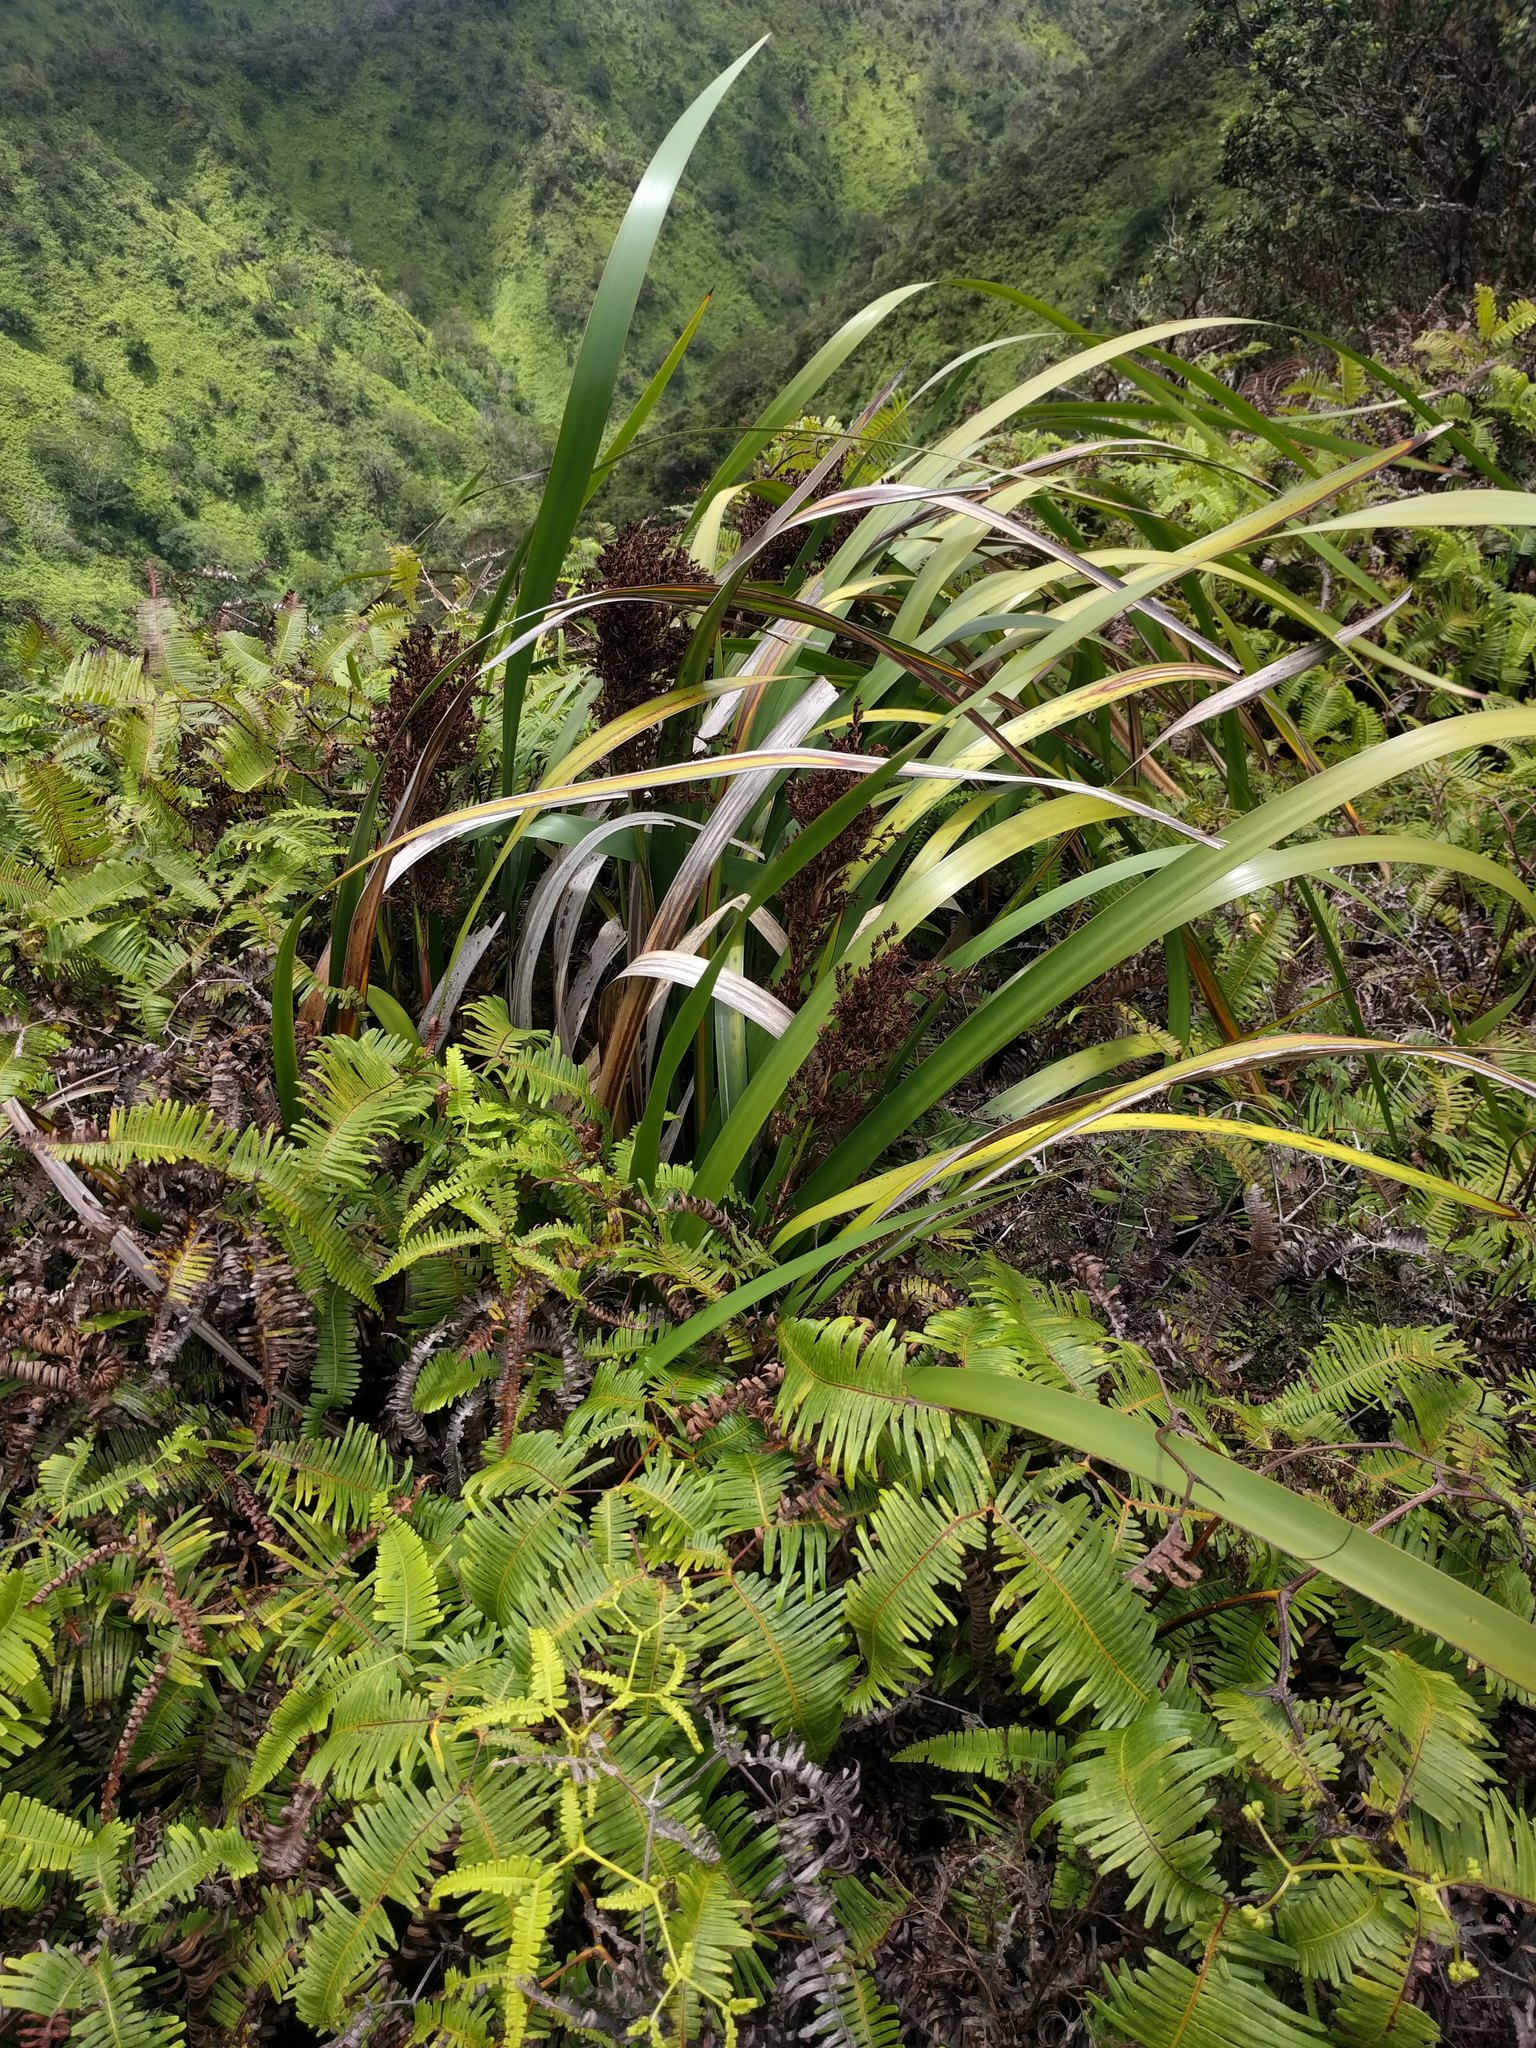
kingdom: Plantae
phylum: Tracheophyta
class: Liliopsida
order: Poales
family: Cyperaceae
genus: Machaerina
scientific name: Machaerina angustifolia
